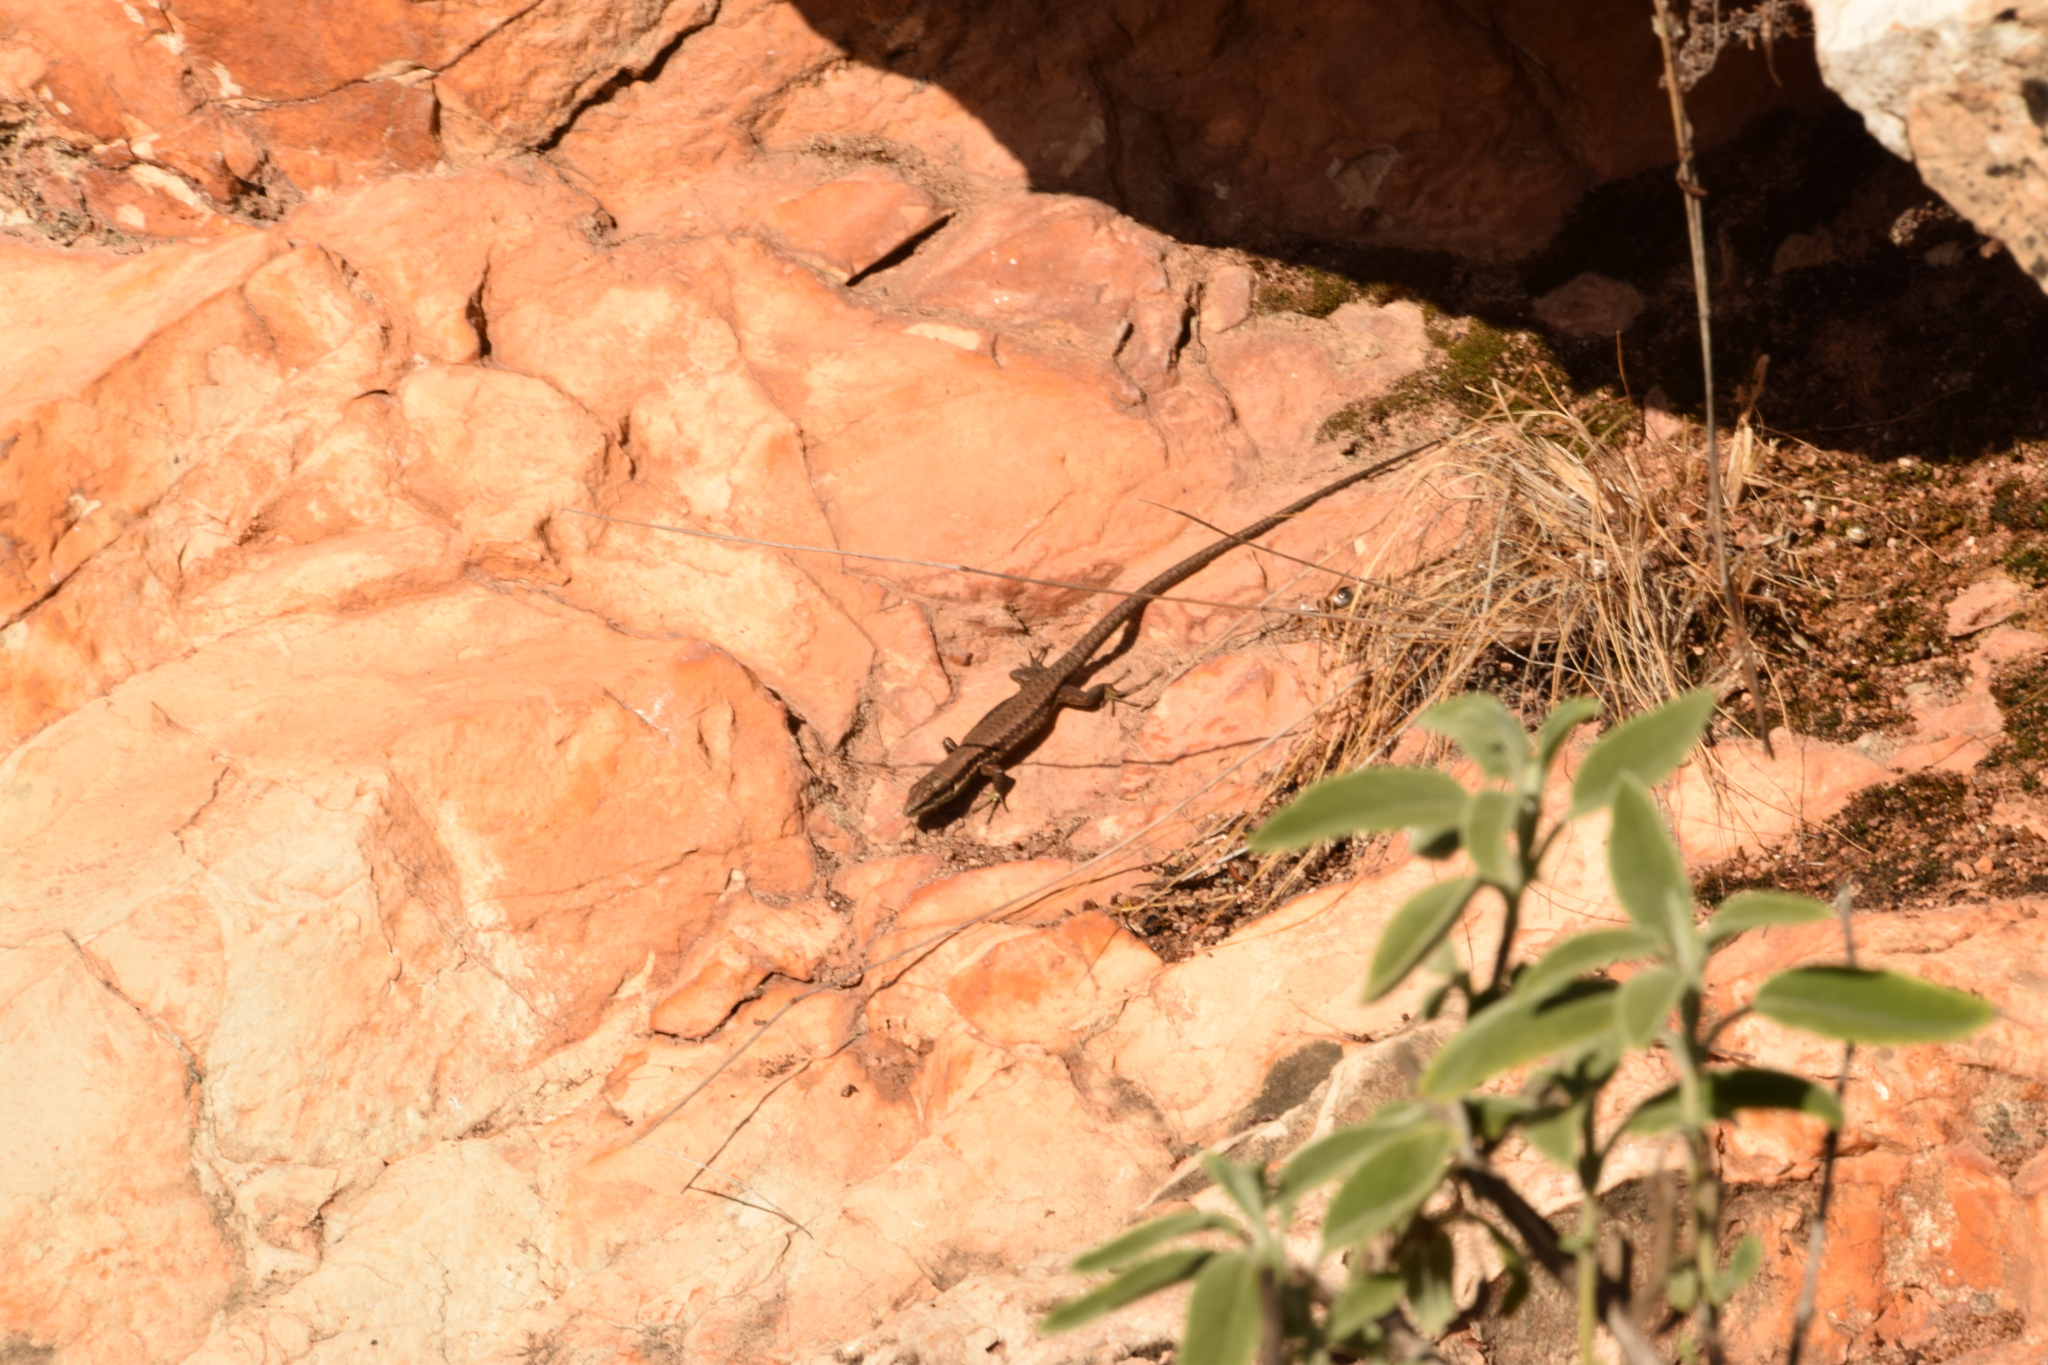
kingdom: Animalia
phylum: Chordata
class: Squamata
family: Lacertidae
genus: Phoenicolacerta
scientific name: Phoenicolacerta laevis
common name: Lebanon lizard
